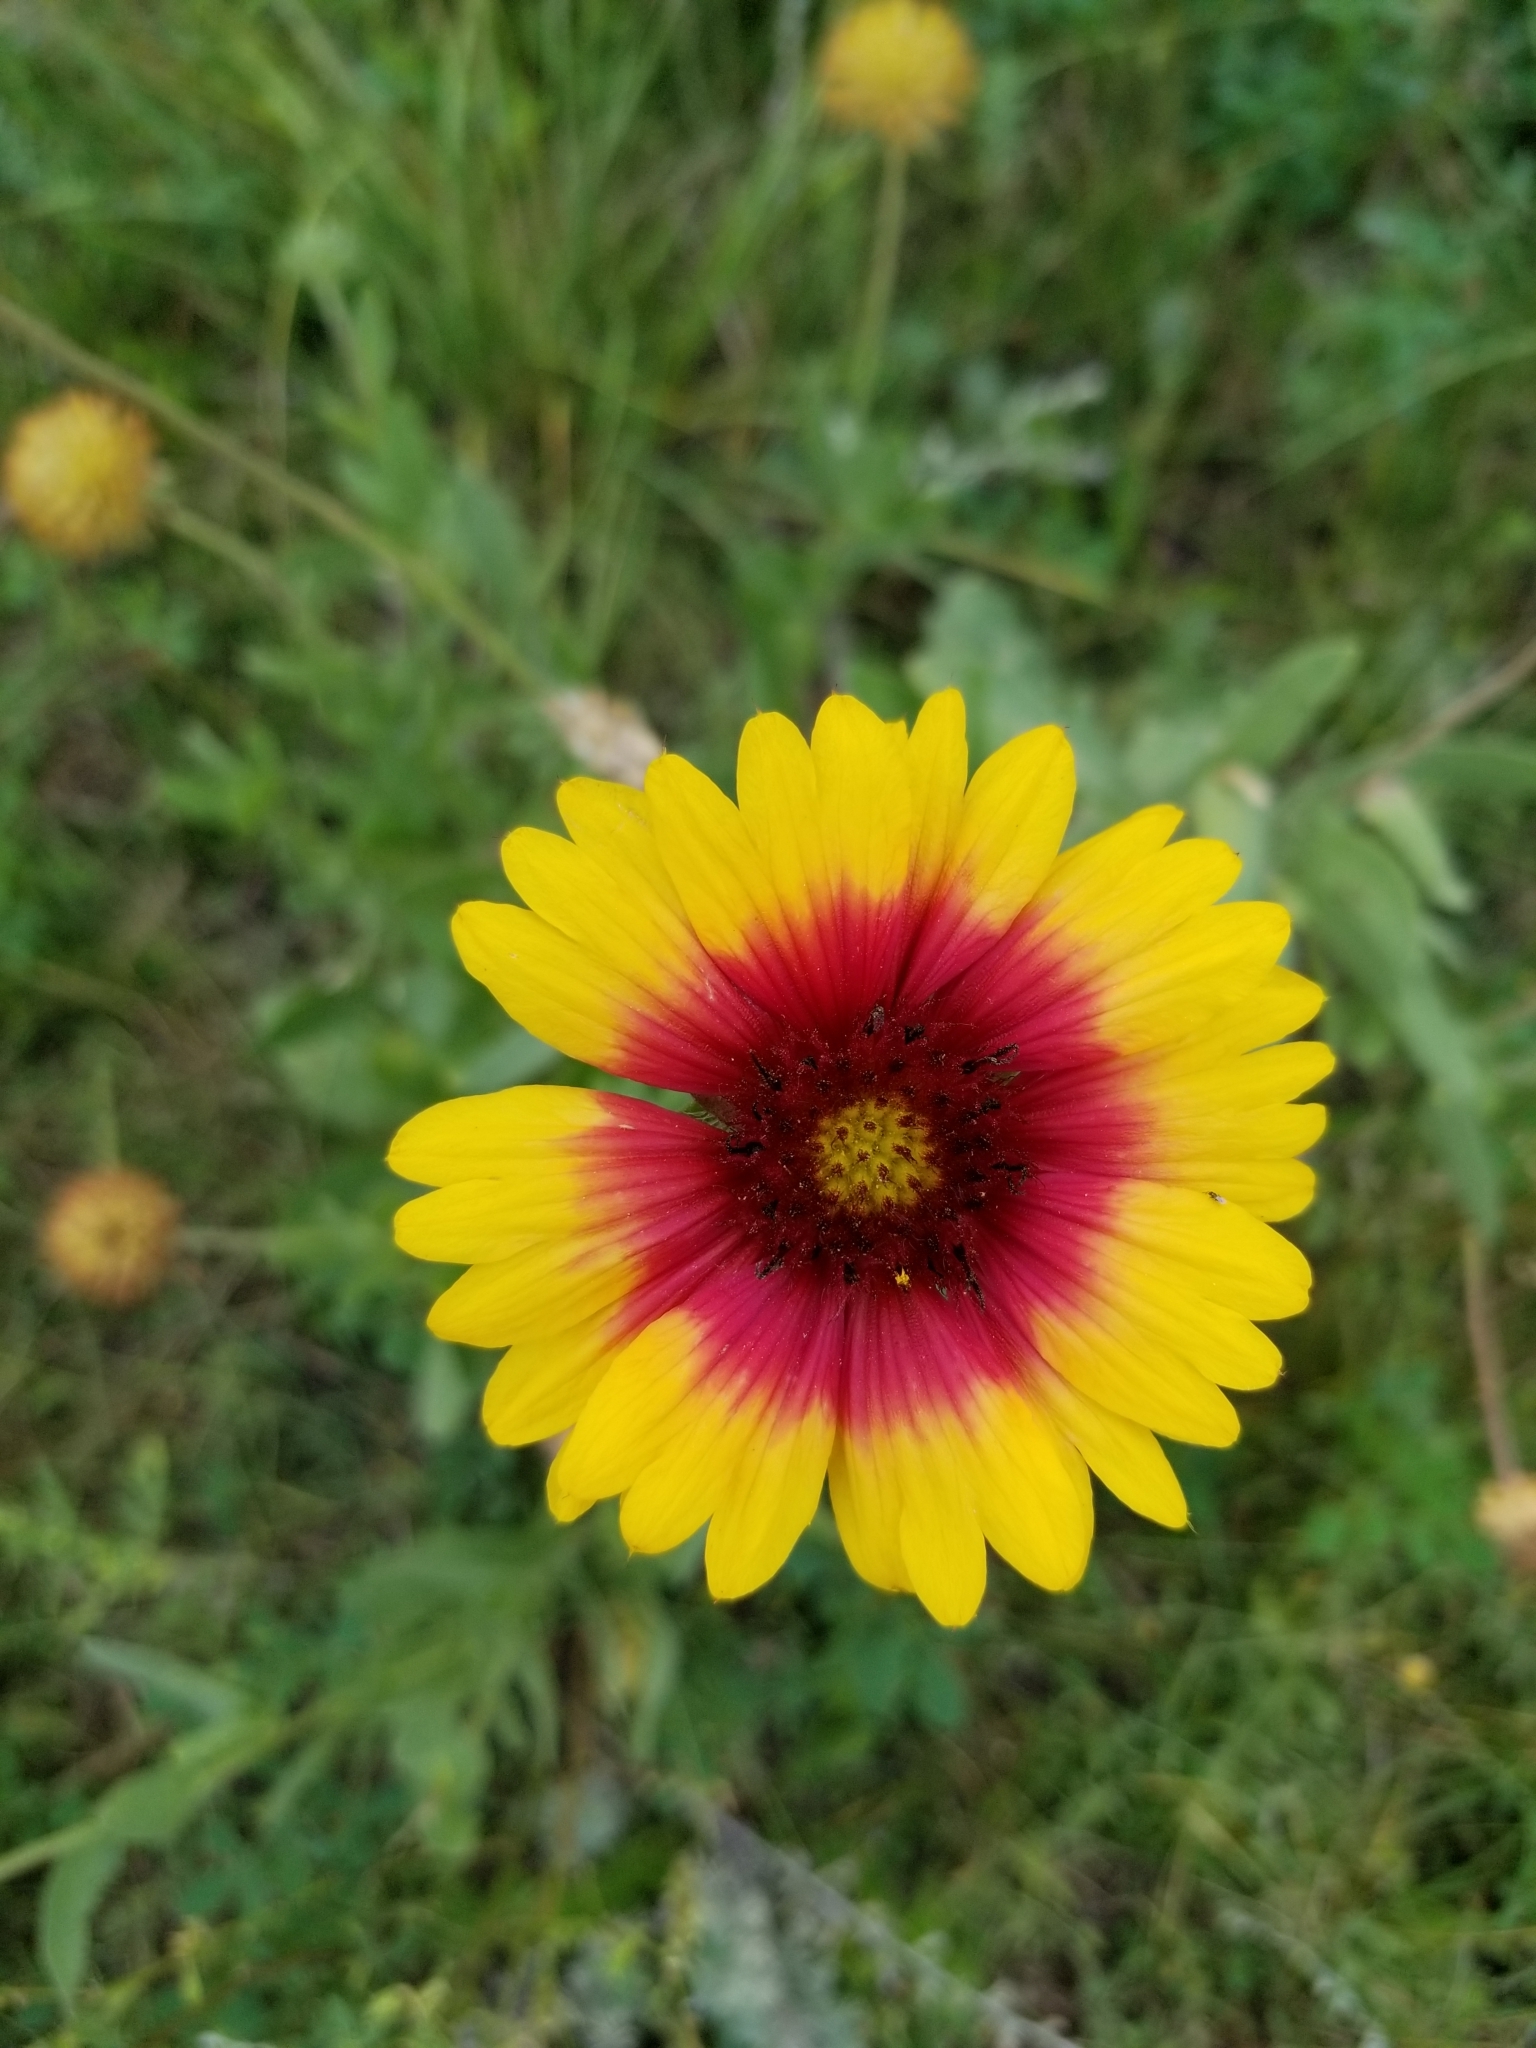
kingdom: Plantae
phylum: Tracheophyta
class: Magnoliopsida
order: Asterales
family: Asteraceae
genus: Gaillardia
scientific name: Gaillardia pulchella
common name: Firewheel
